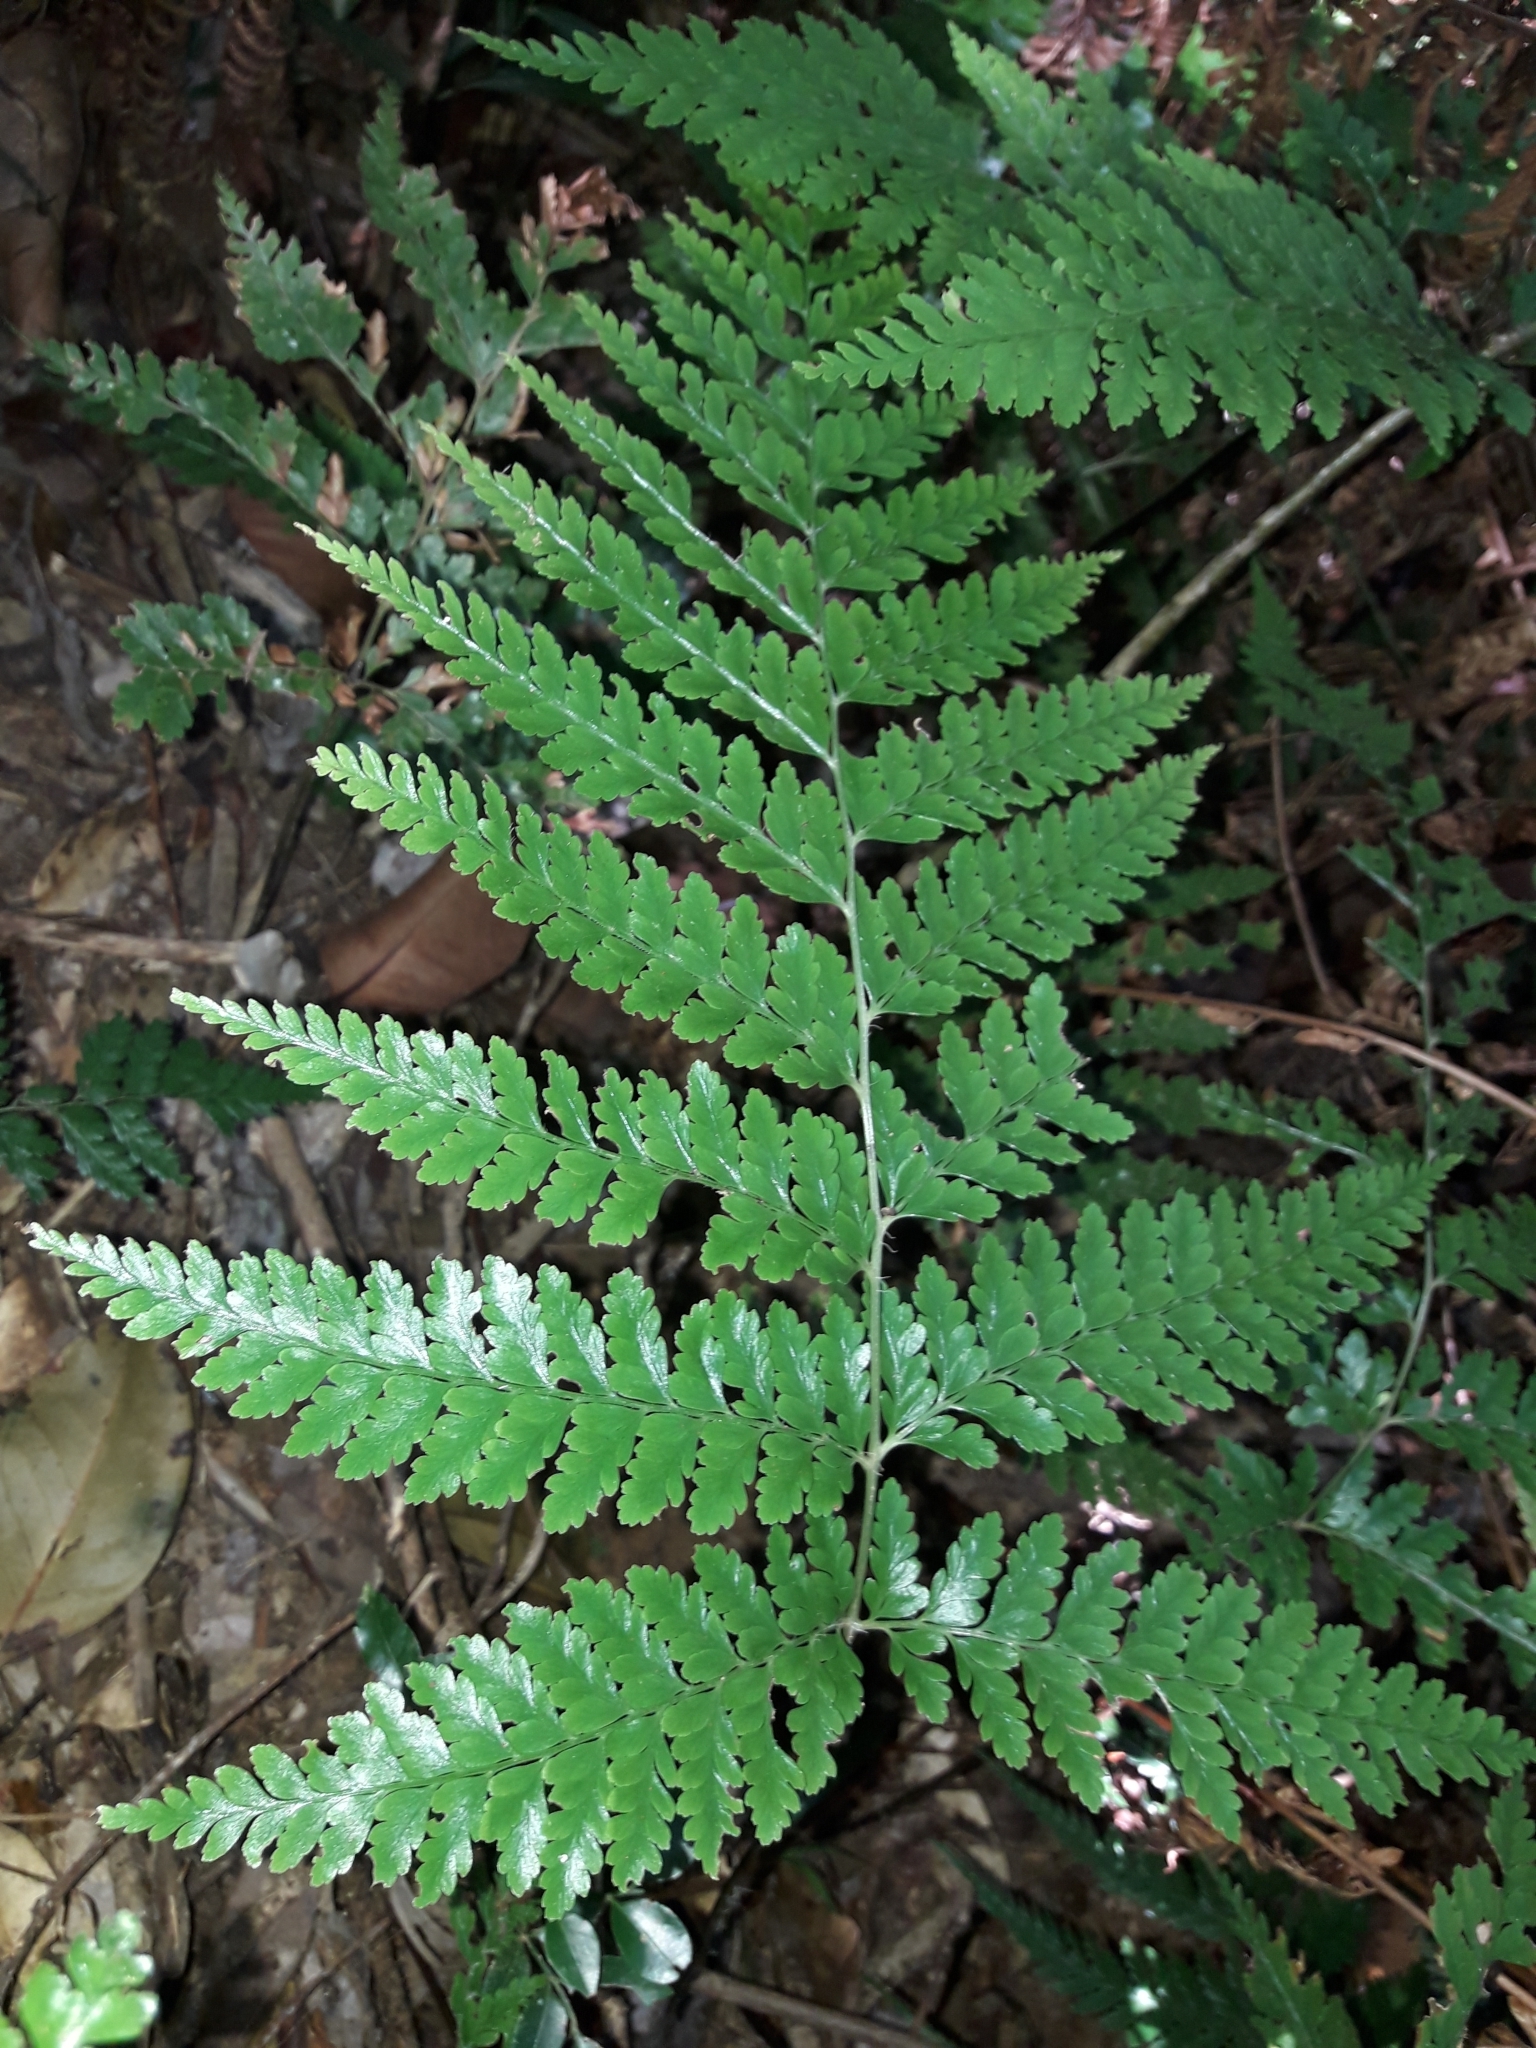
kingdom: Plantae
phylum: Tracheophyta
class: Polypodiopsida
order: Polypodiales
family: Dennstaedtiaceae
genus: Dennstaedtia
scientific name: Dennstaedtia maxima
